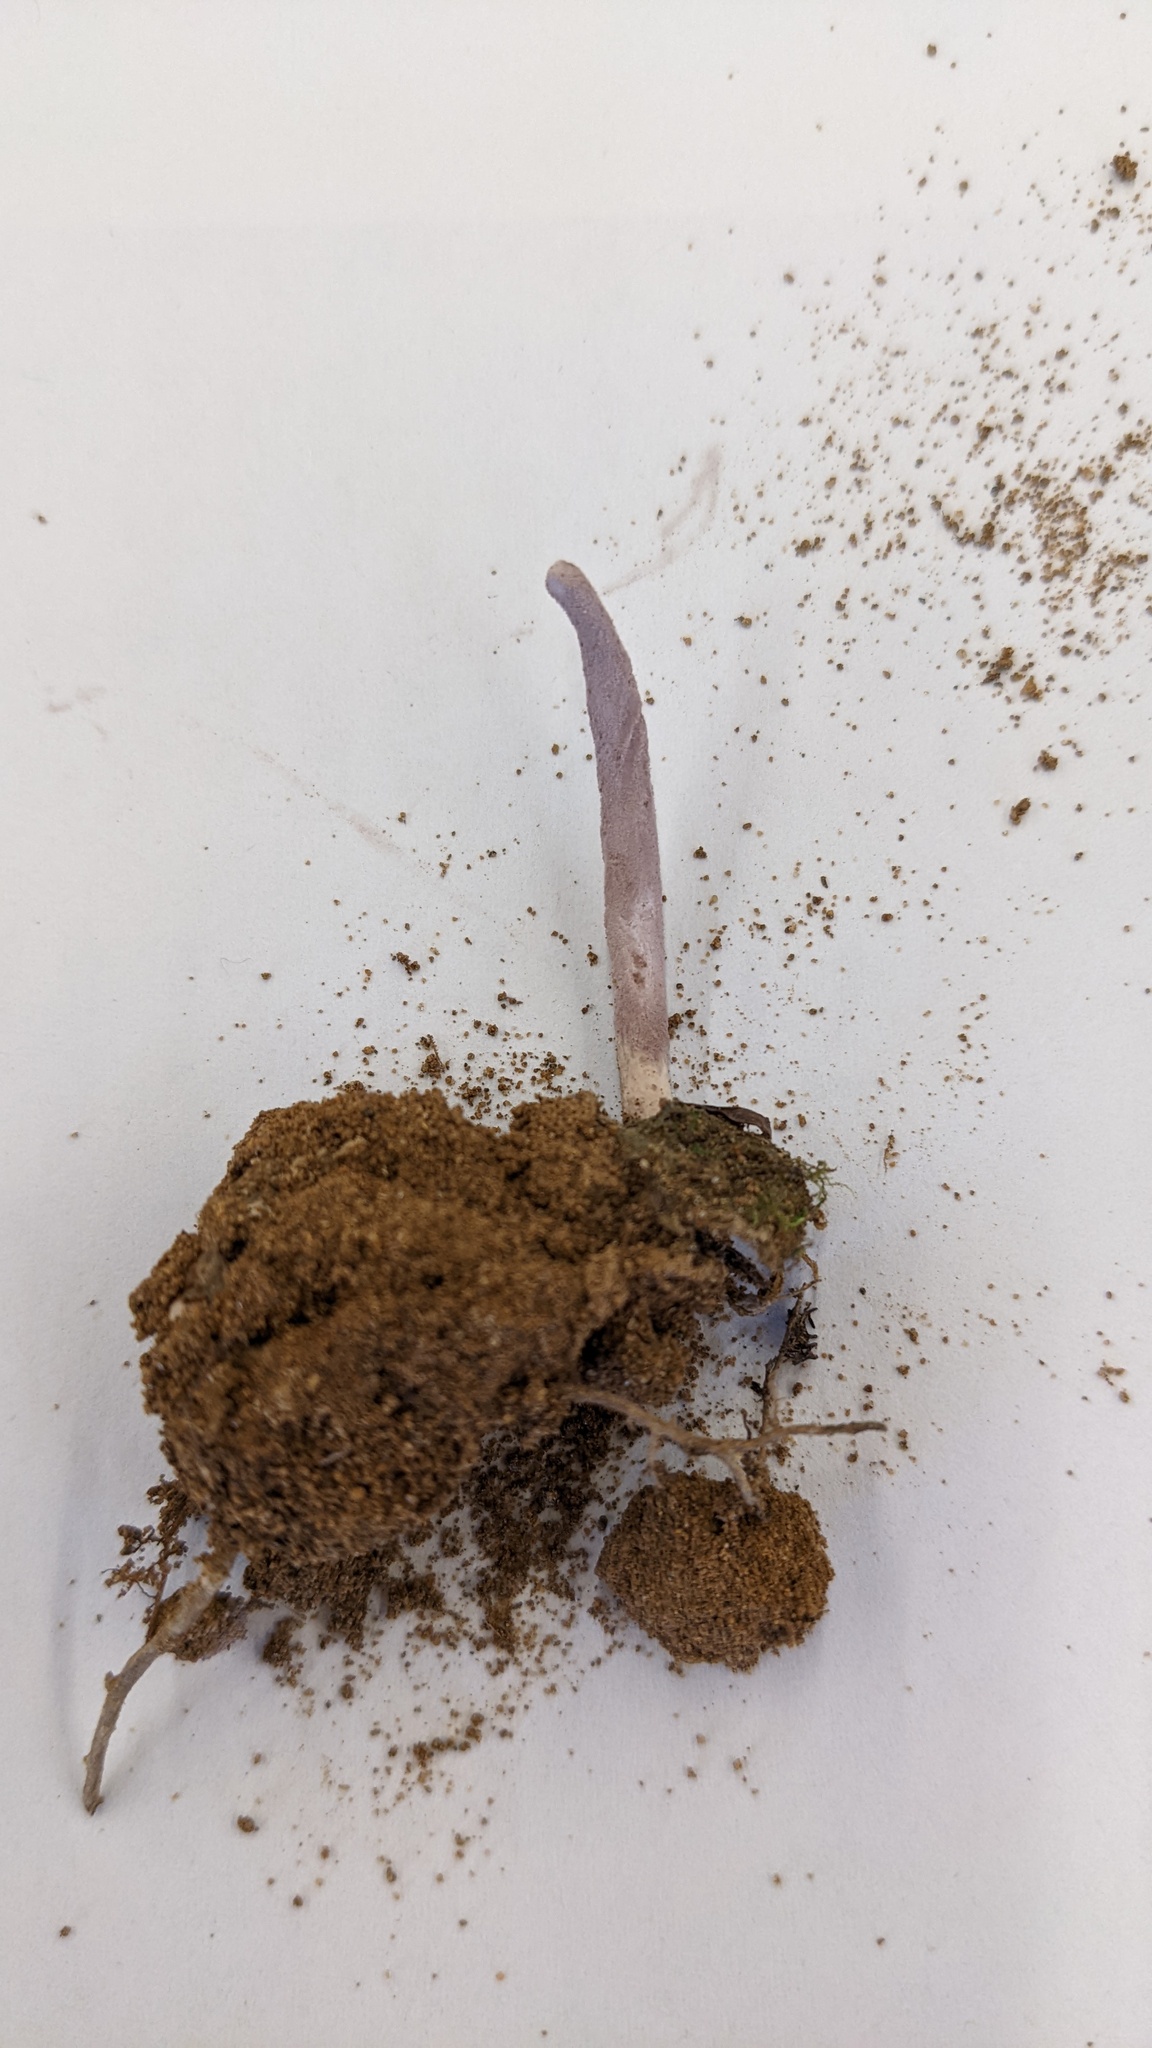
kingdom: Fungi
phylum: Ascomycota
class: Sordariomycetes
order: Hypocreales
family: Ophiocordycipitaceae
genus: Purpureocillium
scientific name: Purpureocillium atypicola
